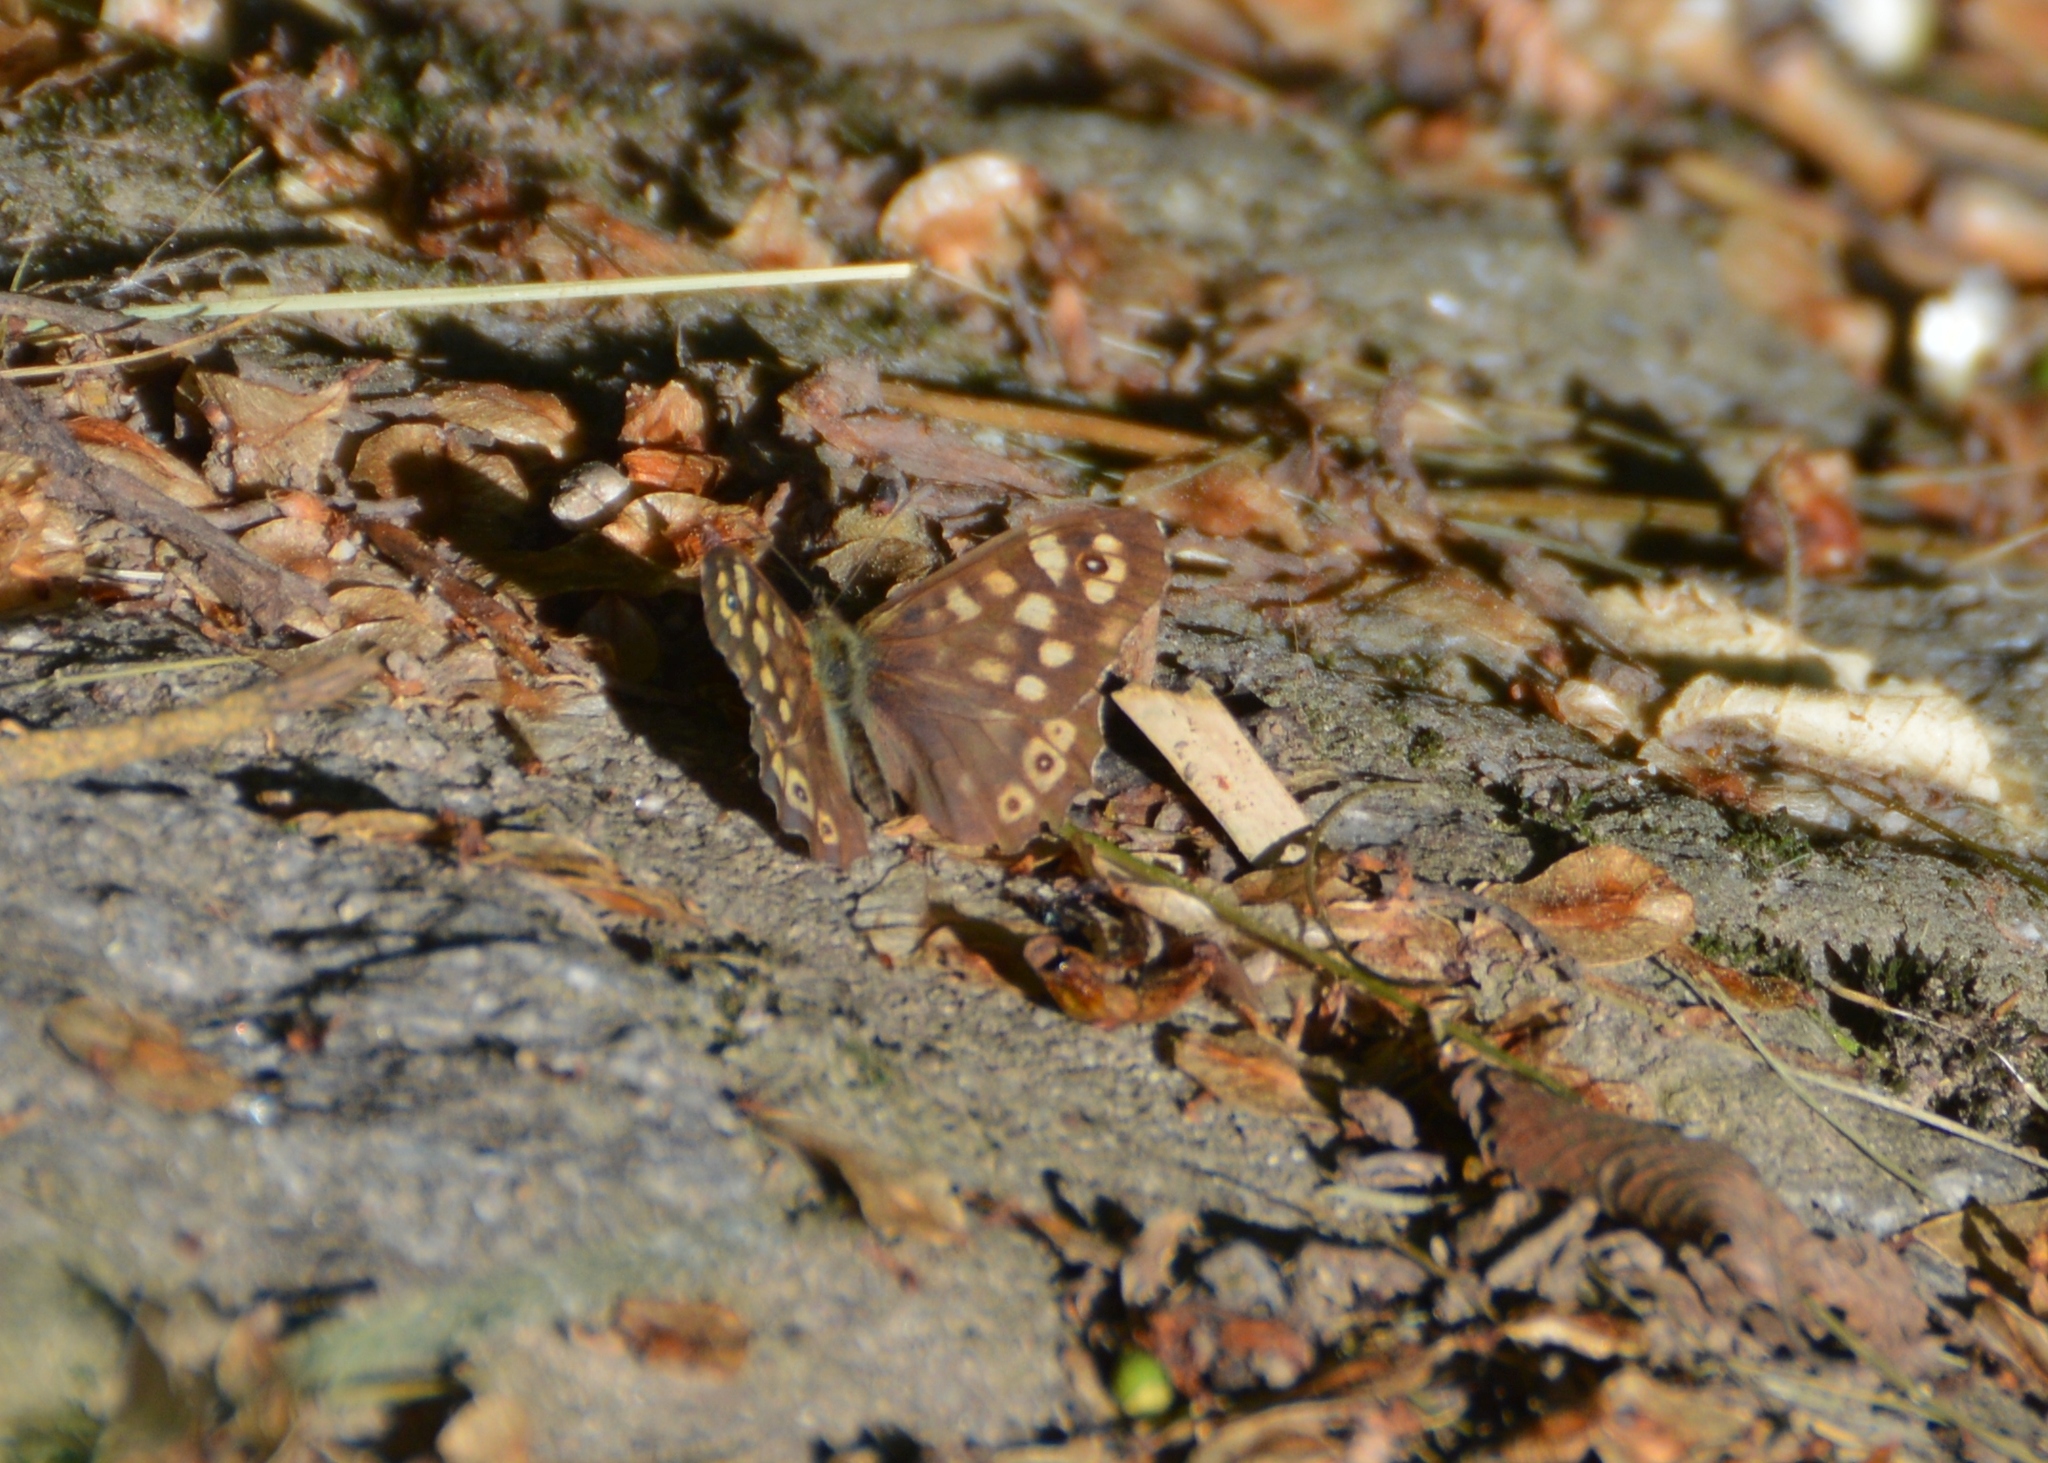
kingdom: Animalia
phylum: Arthropoda
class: Insecta
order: Lepidoptera
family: Nymphalidae
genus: Pararge
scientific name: Pararge aegeria
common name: Speckled wood
